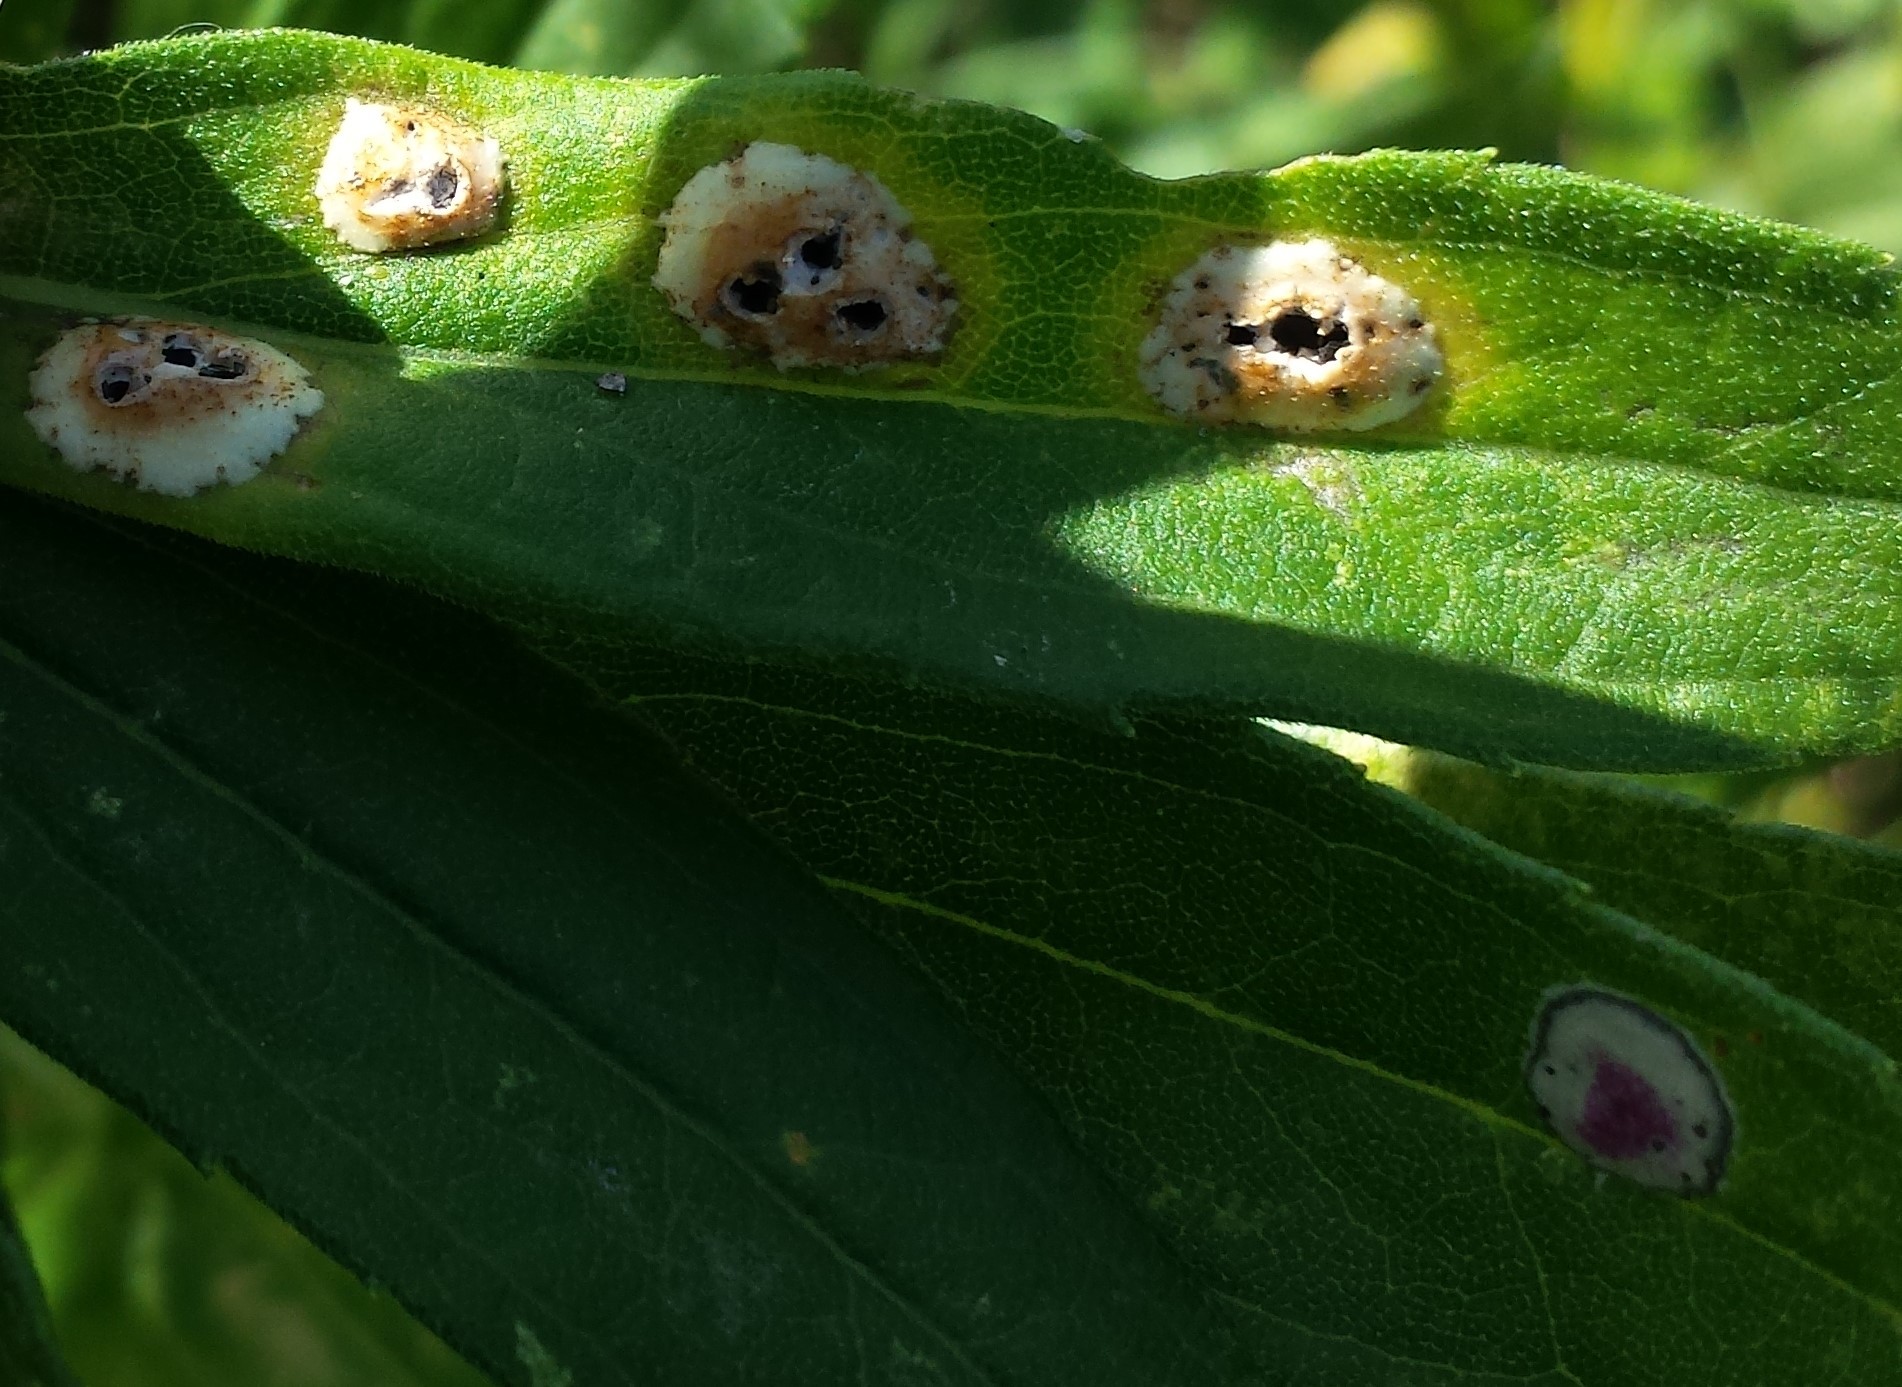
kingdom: Animalia
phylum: Arthropoda
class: Insecta
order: Diptera
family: Cecidomyiidae
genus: Asteromyia
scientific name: Asteromyia carbonifera
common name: Carbonifera goldenrod gall midge
